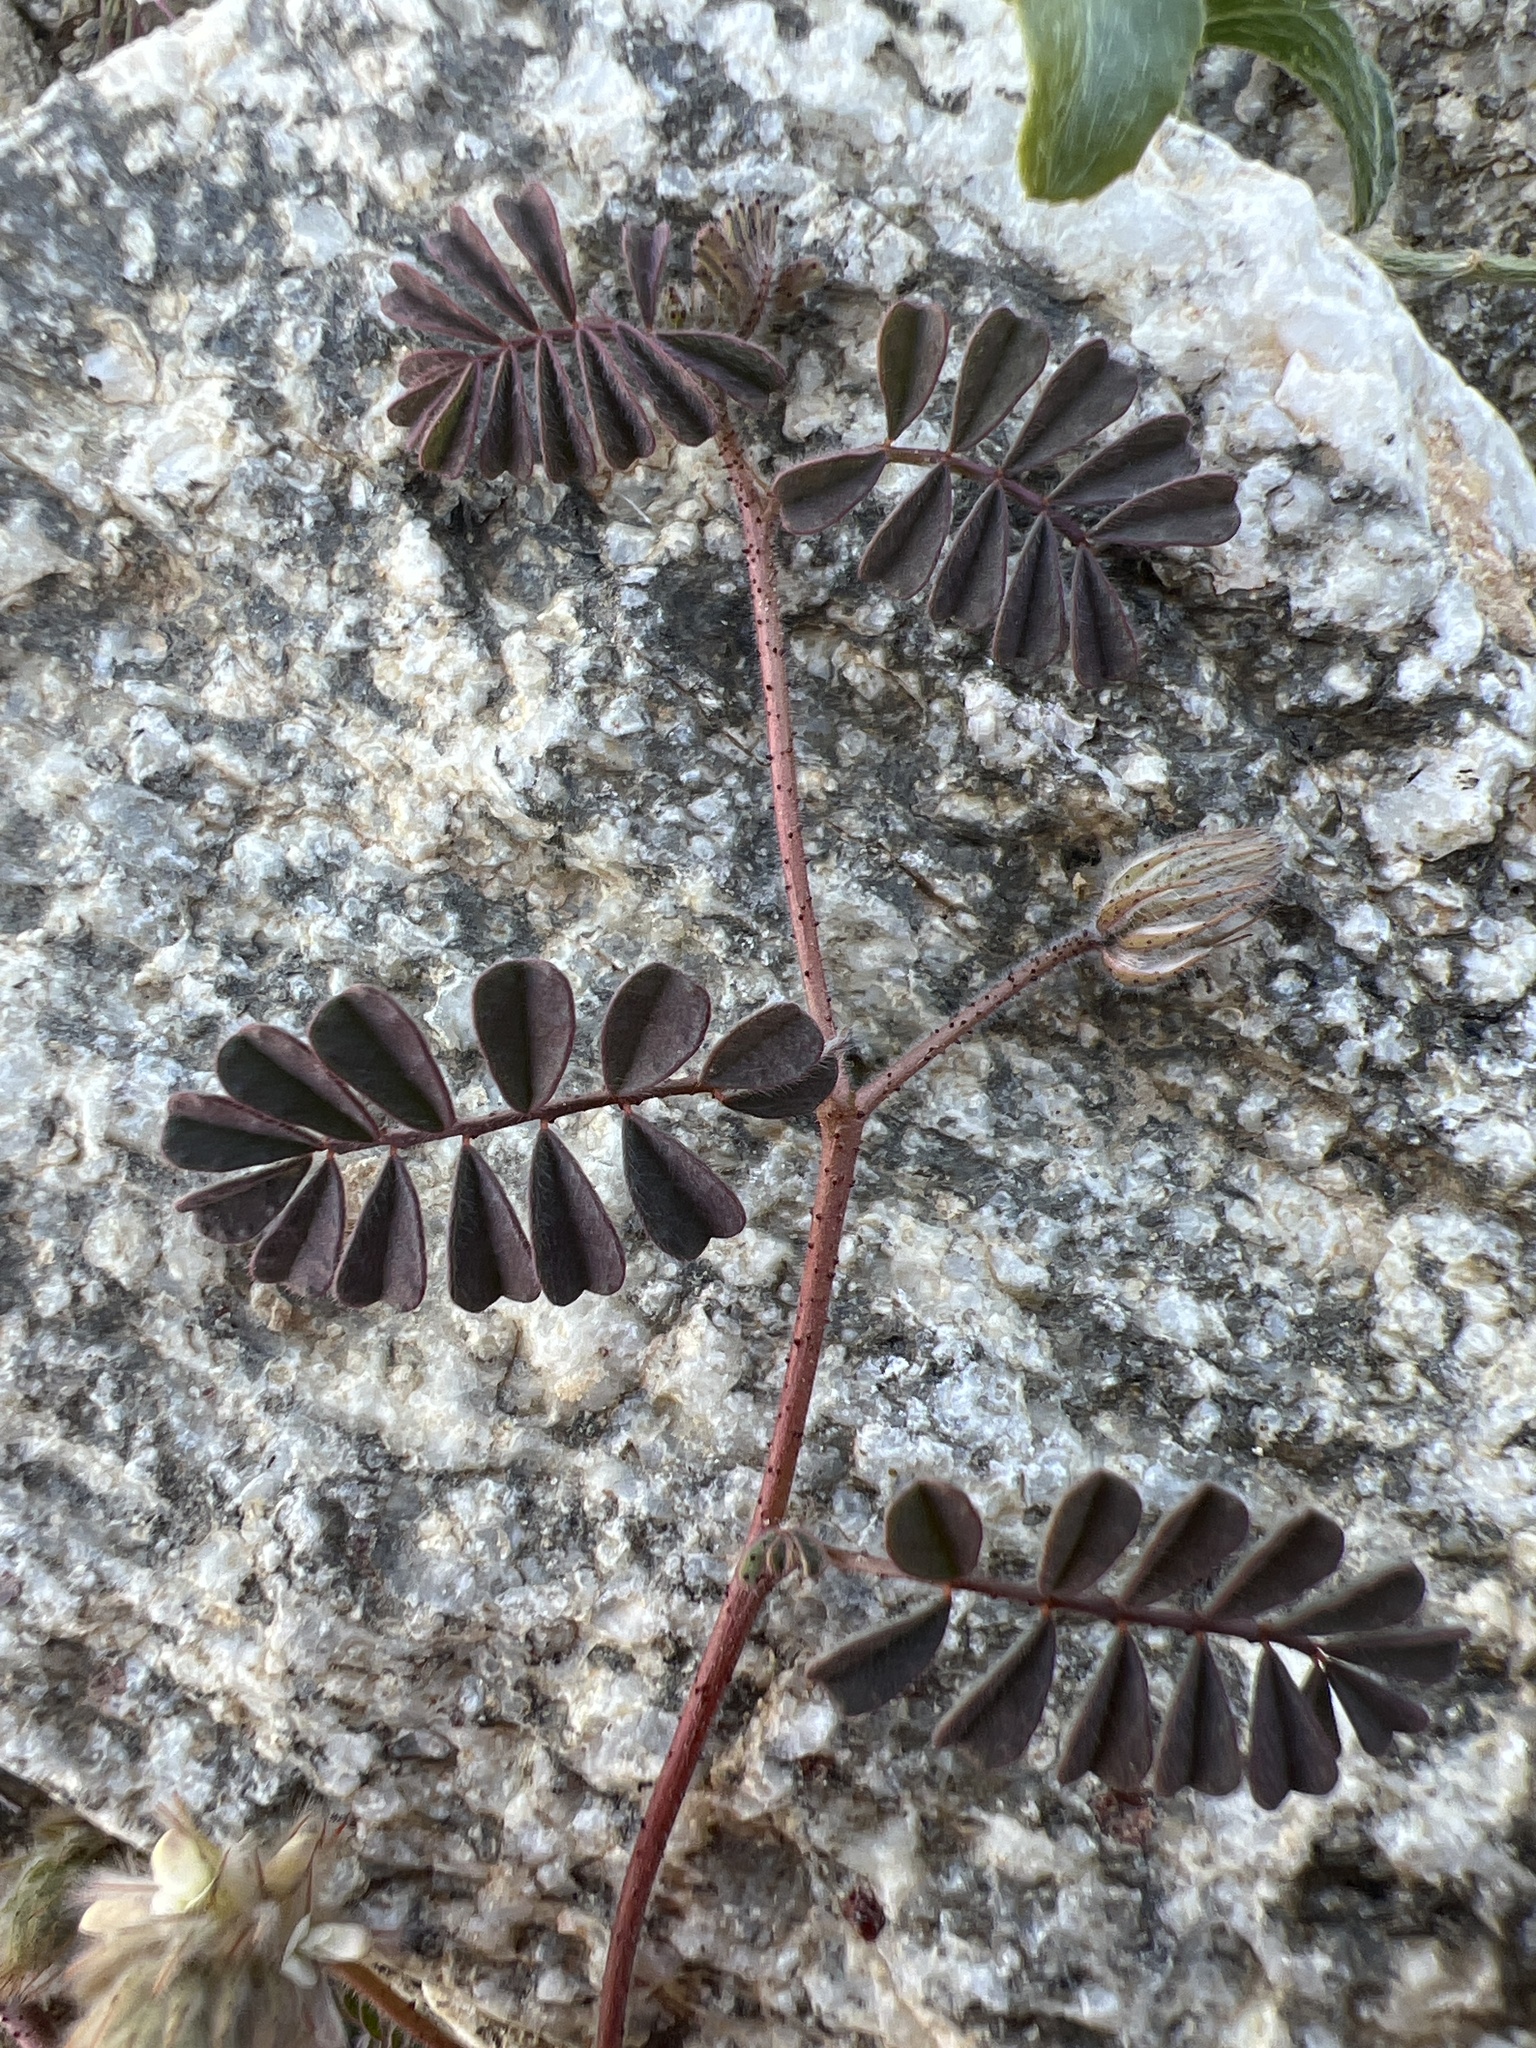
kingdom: Plantae
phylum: Tracheophyta
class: Magnoliopsida
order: Fabales
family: Fabaceae
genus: Dalea
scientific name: Dalea mollis
